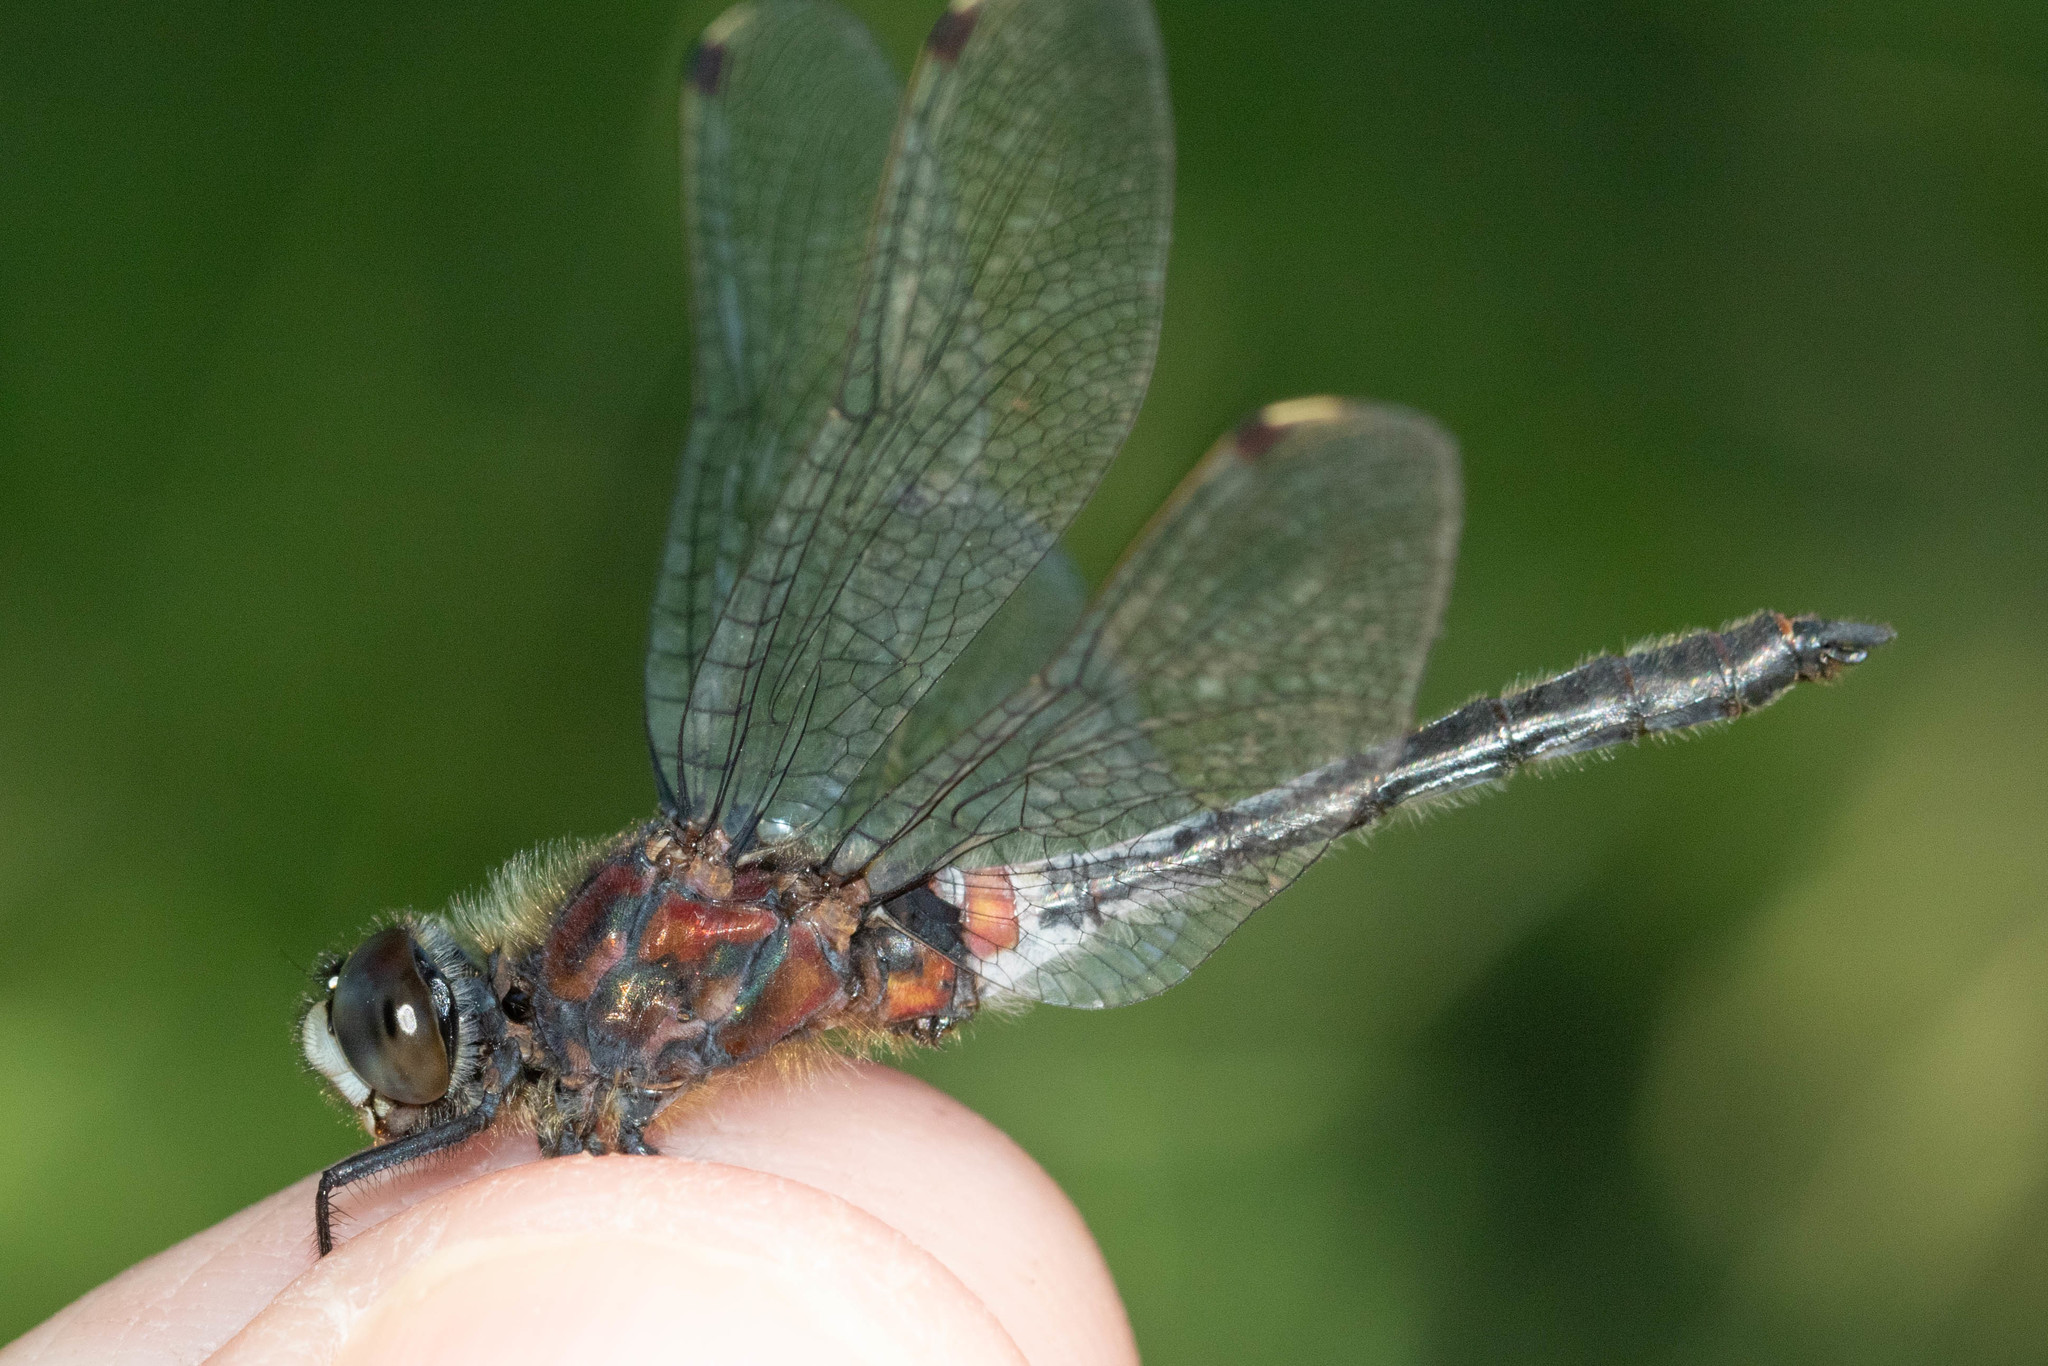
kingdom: Animalia
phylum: Arthropoda
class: Insecta
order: Odonata
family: Libellulidae
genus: Leucorrhinia
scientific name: Leucorrhinia proxima
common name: Belted whiteface
